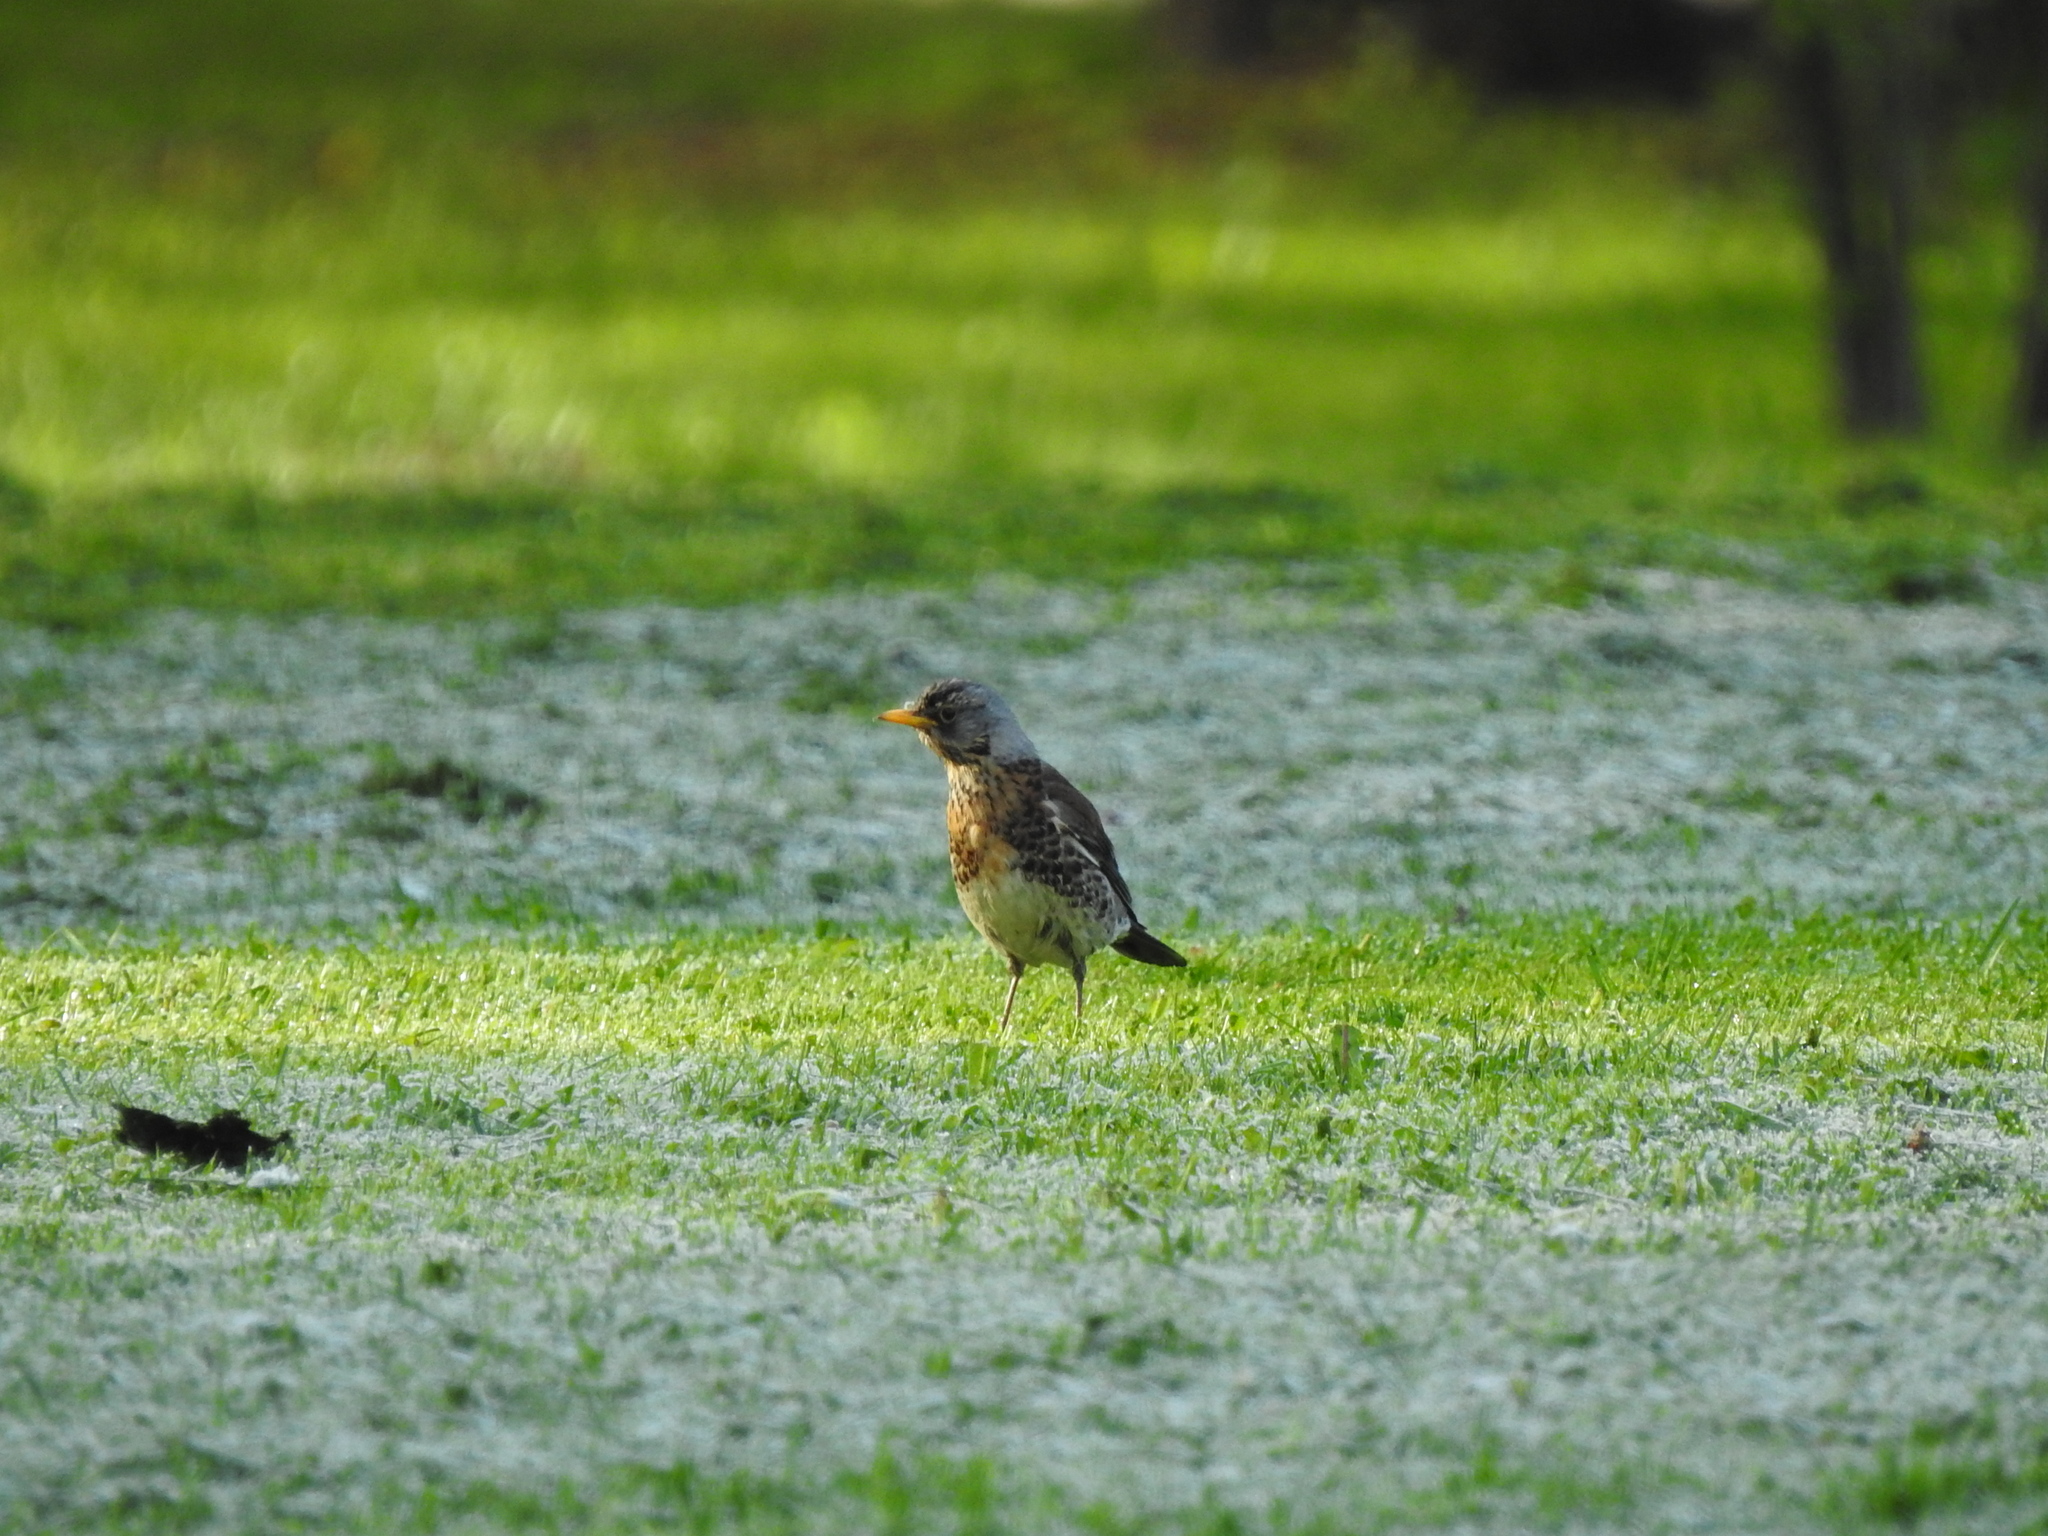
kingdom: Animalia
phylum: Chordata
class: Aves
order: Passeriformes
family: Turdidae
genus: Turdus
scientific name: Turdus pilaris
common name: Fieldfare
